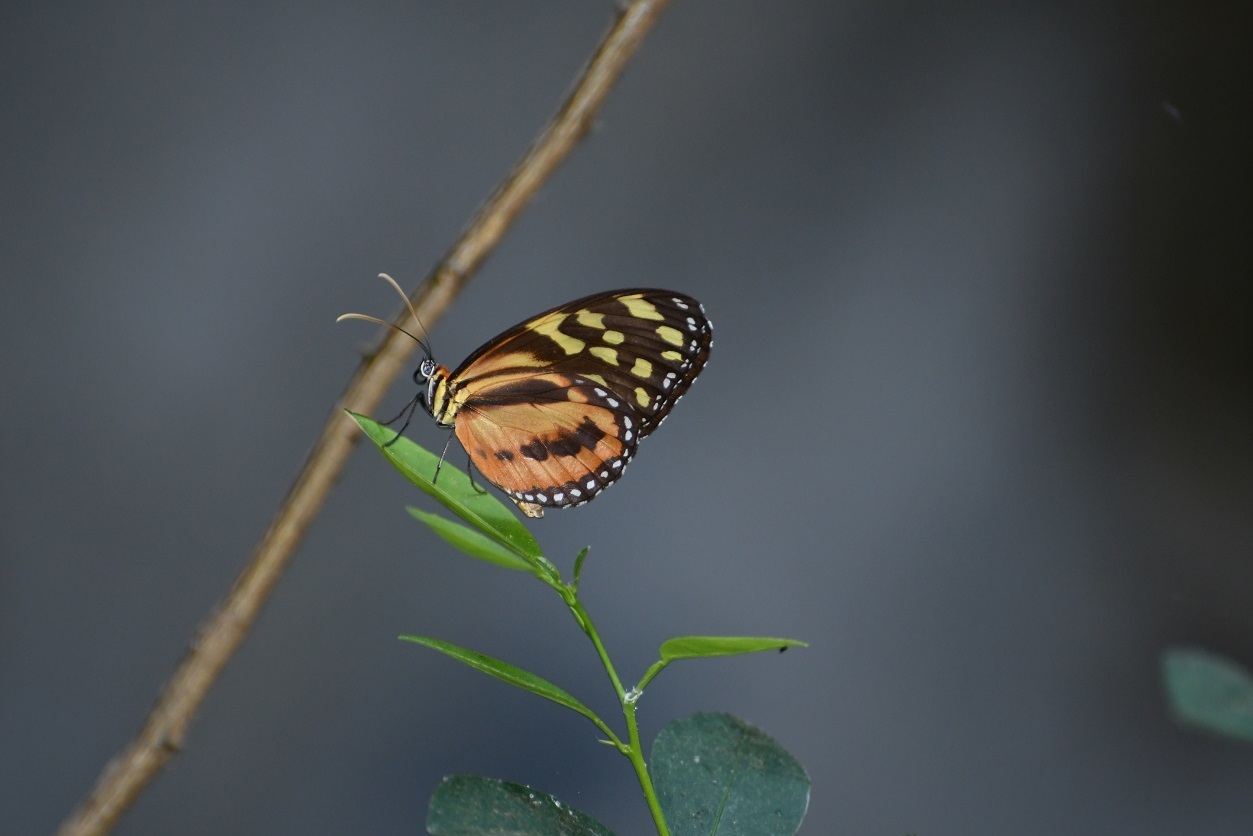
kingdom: Animalia
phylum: Arthropoda
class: Insecta
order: Lepidoptera
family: Nymphalidae
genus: Tithorea
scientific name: Tithorea harmonia
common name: Harmonia tigerwing
